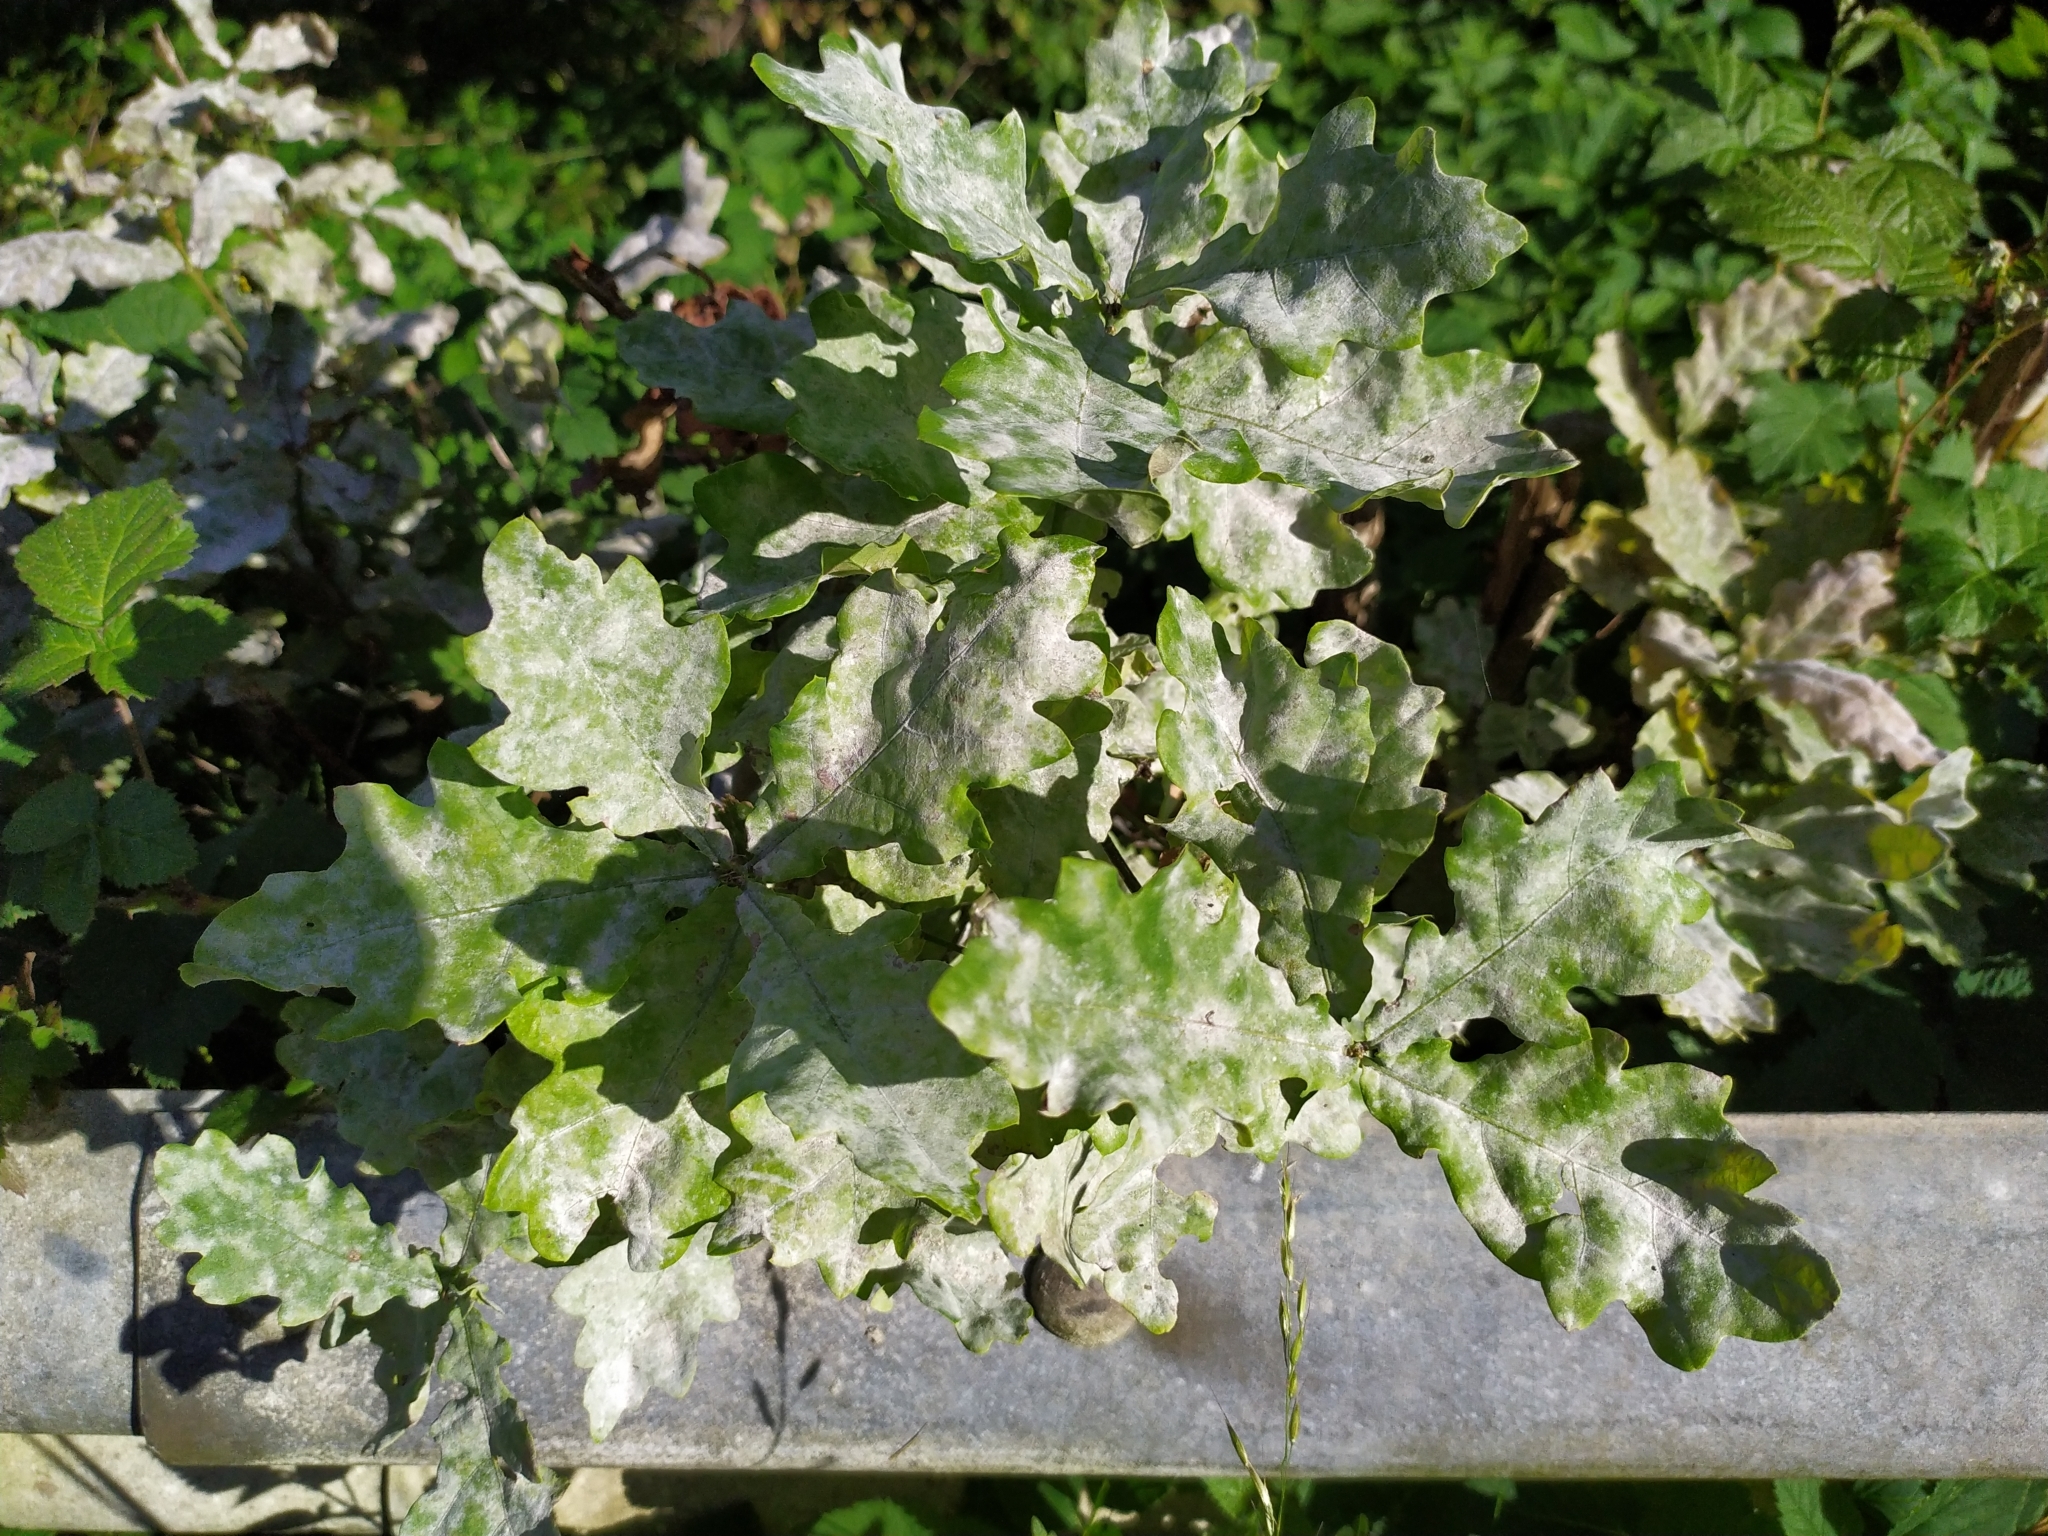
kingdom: Fungi
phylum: Ascomycota
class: Leotiomycetes
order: Helotiales
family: Erysiphaceae
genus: Erysiphe
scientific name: Erysiphe
